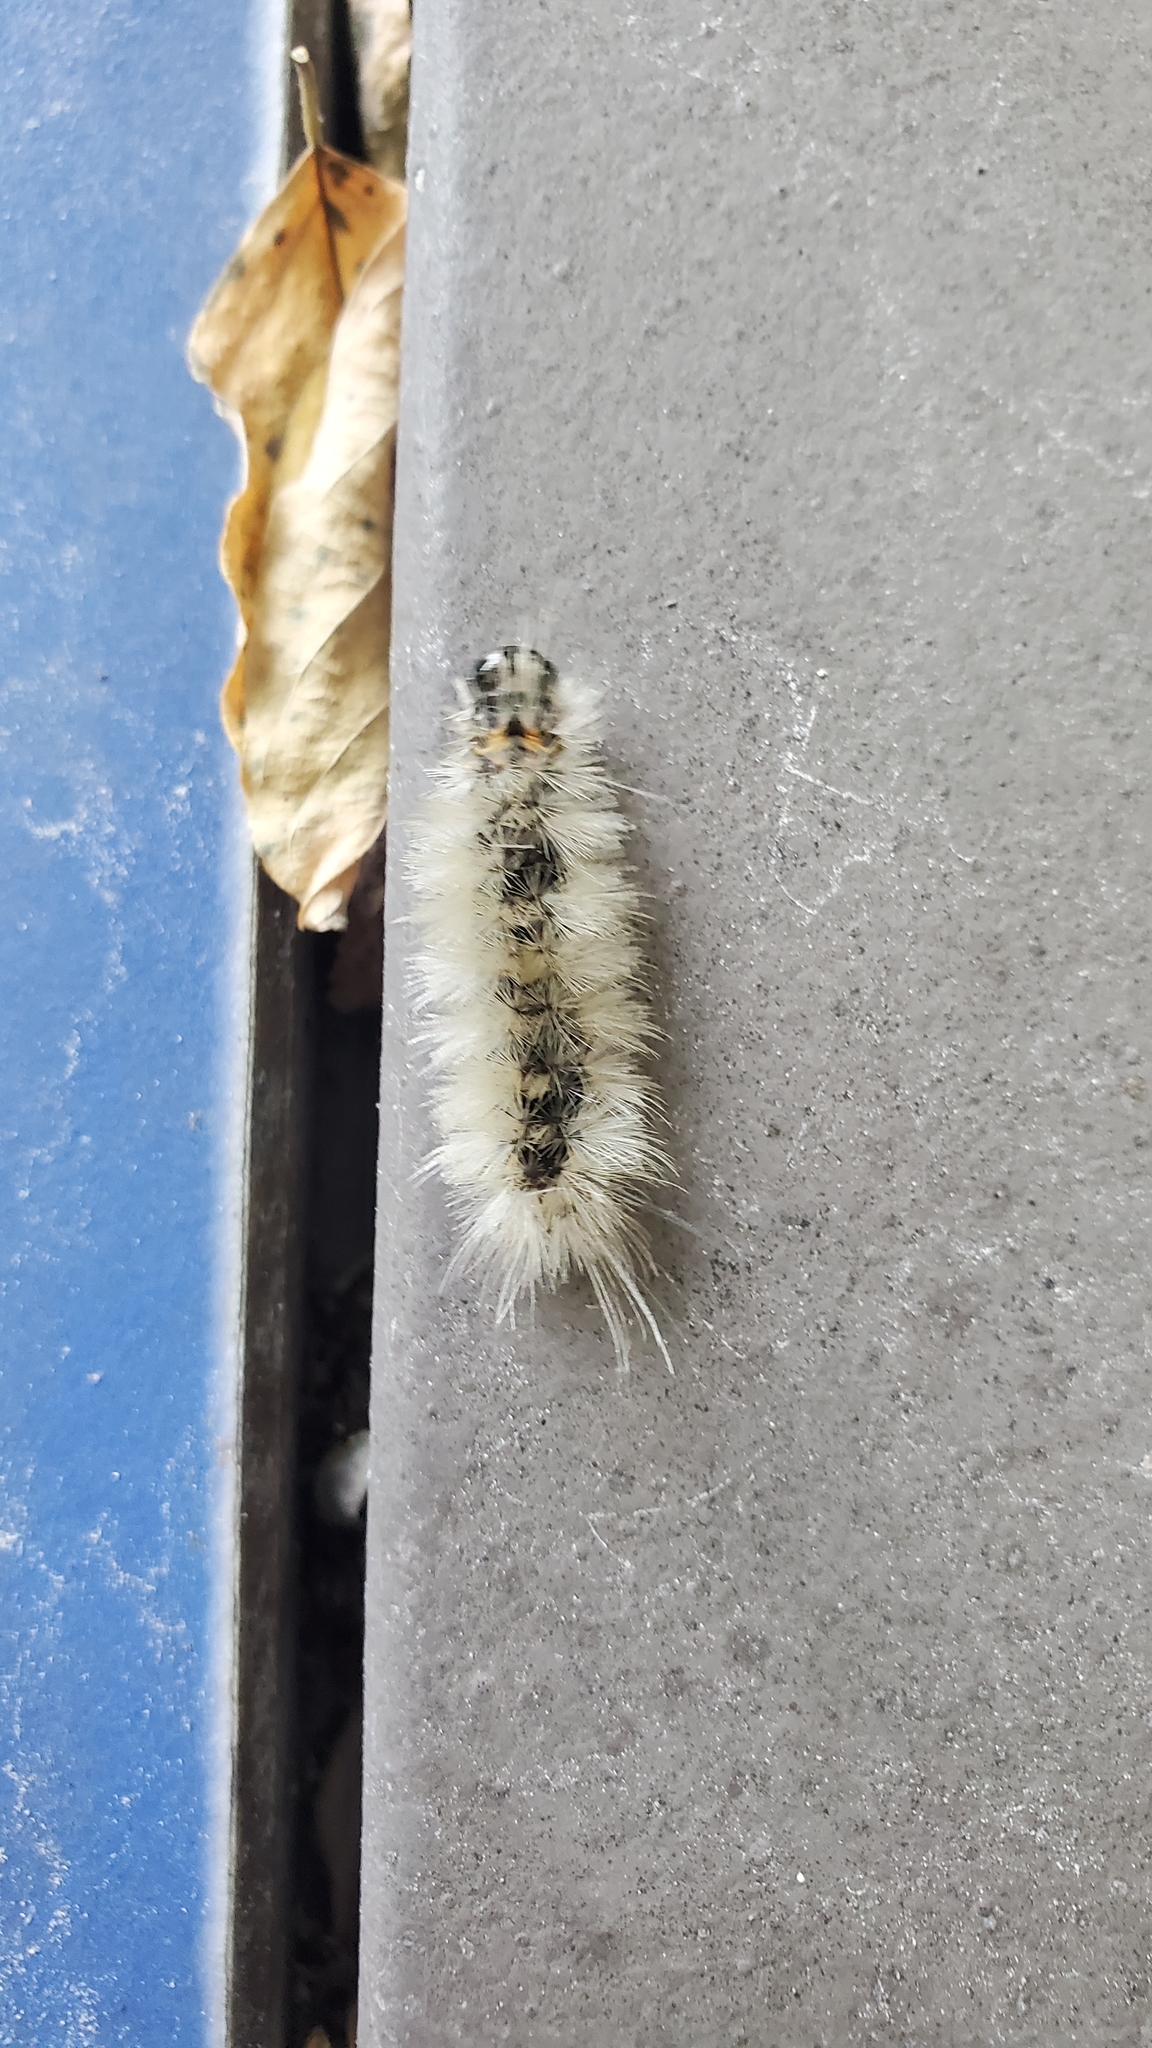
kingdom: Animalia
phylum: Arthropoda
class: Insecta
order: Lepidoptera
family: Erebidae
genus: Halysidota
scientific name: Halysidota tessellaris
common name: Banded tussock moth
